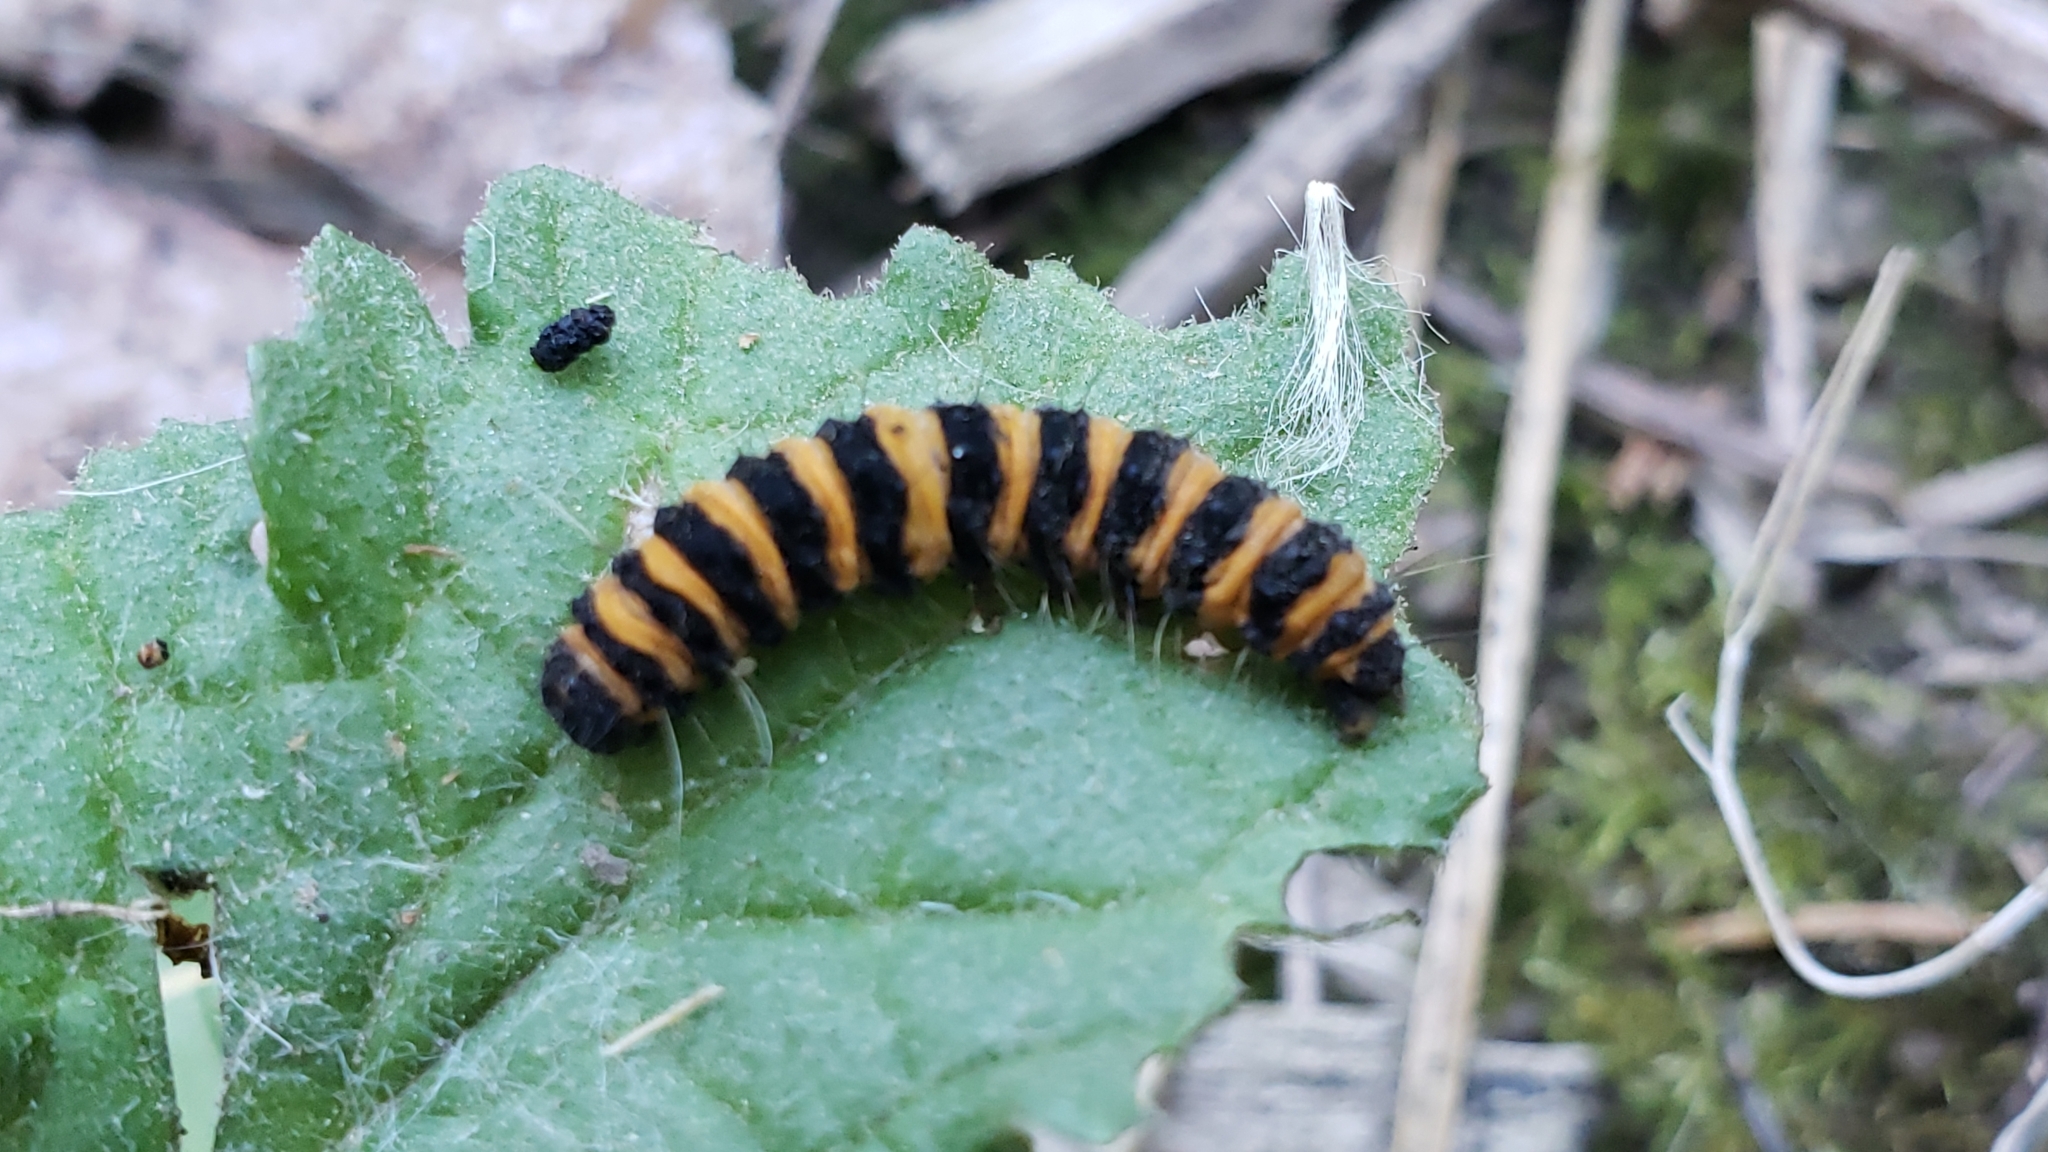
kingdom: Animalia
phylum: Arthropoda
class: Insecta
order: Lepidoptera
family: Erebidae
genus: Tyria
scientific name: Tyria jacobaeae
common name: Cinnabar
